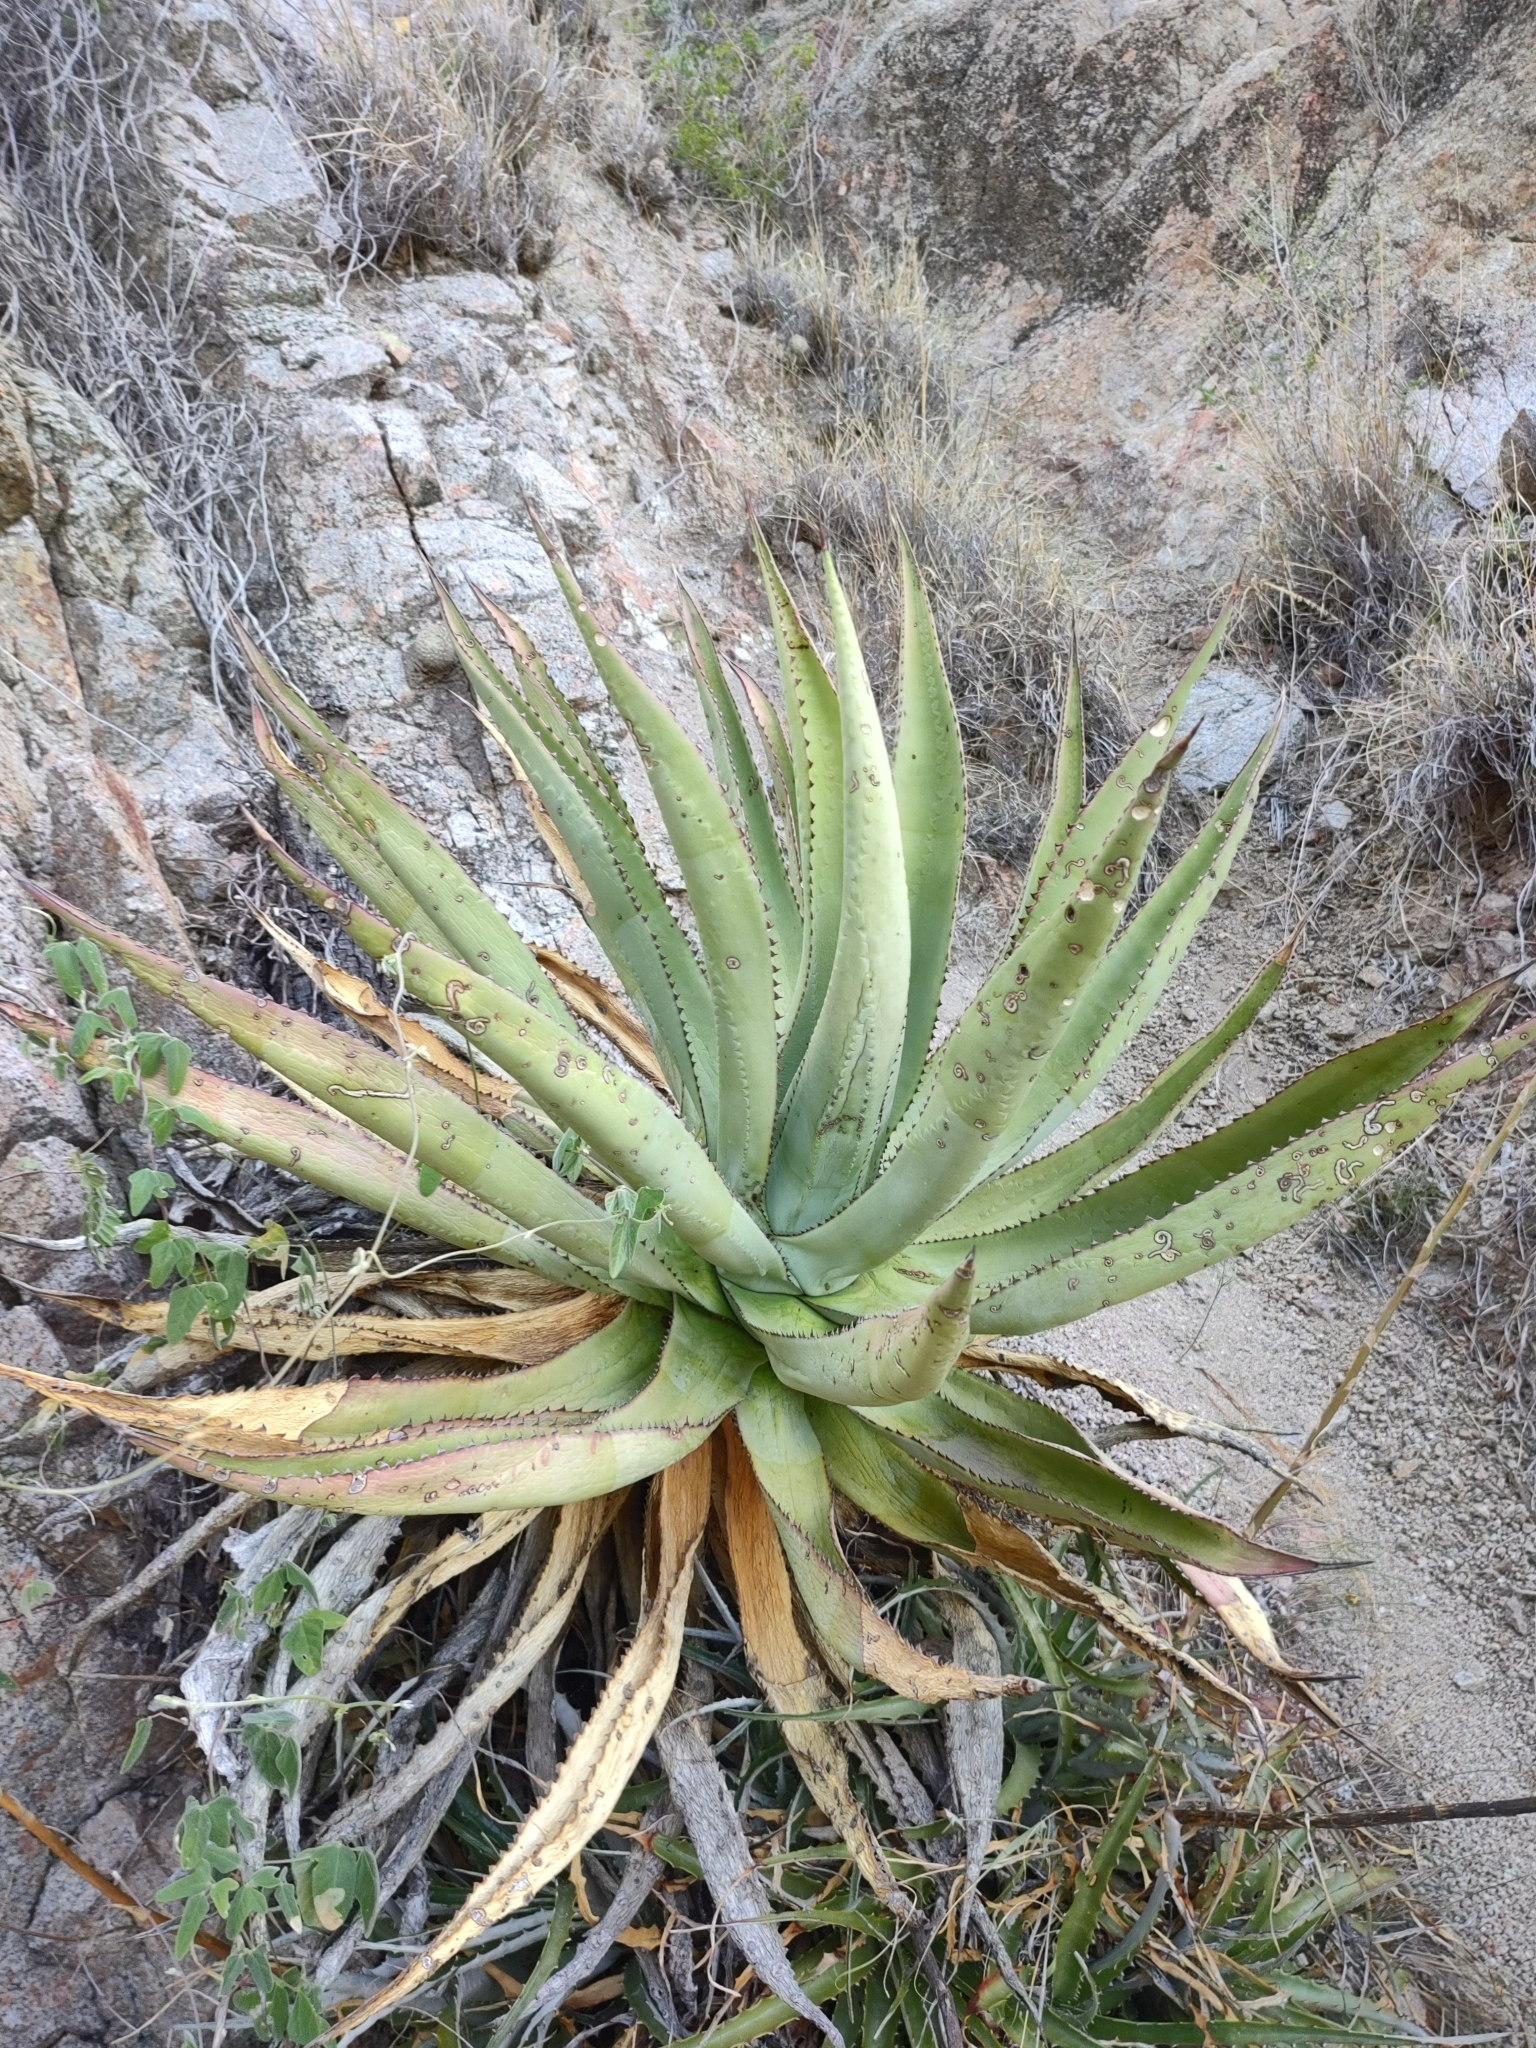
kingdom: Plantae
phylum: Tracheophyta
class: Liliopsida
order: Asparagales
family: Asparagaceae
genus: Agave
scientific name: Agave aurea
